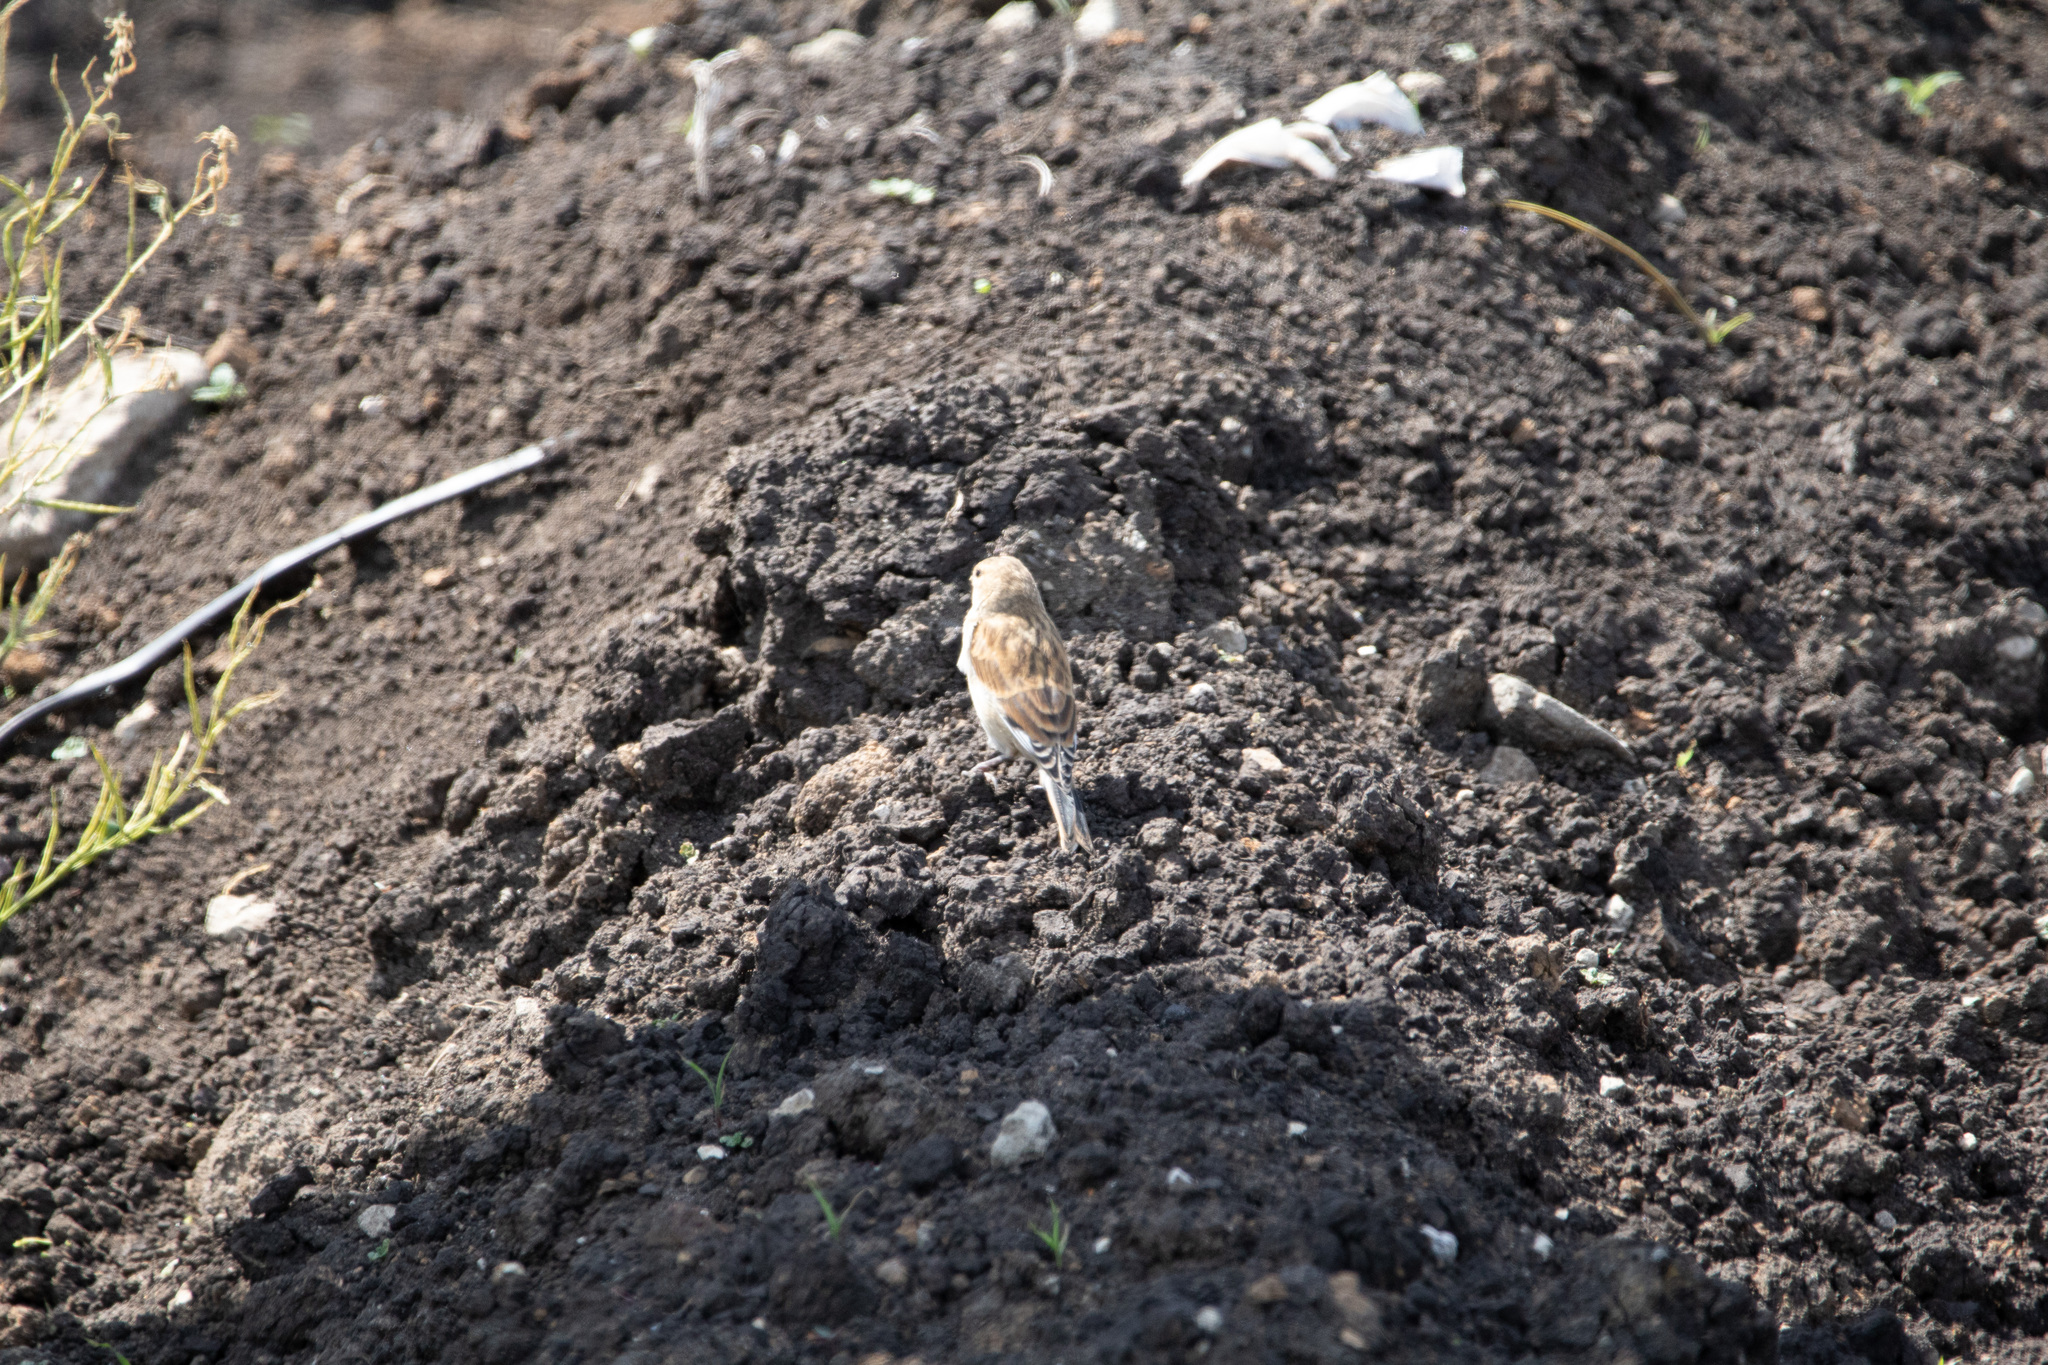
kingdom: Animalia
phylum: Chordata
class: Aves
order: Passeriformes
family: Fringillidae
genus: Linaria
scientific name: Linaria cannabina
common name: Common linnet
